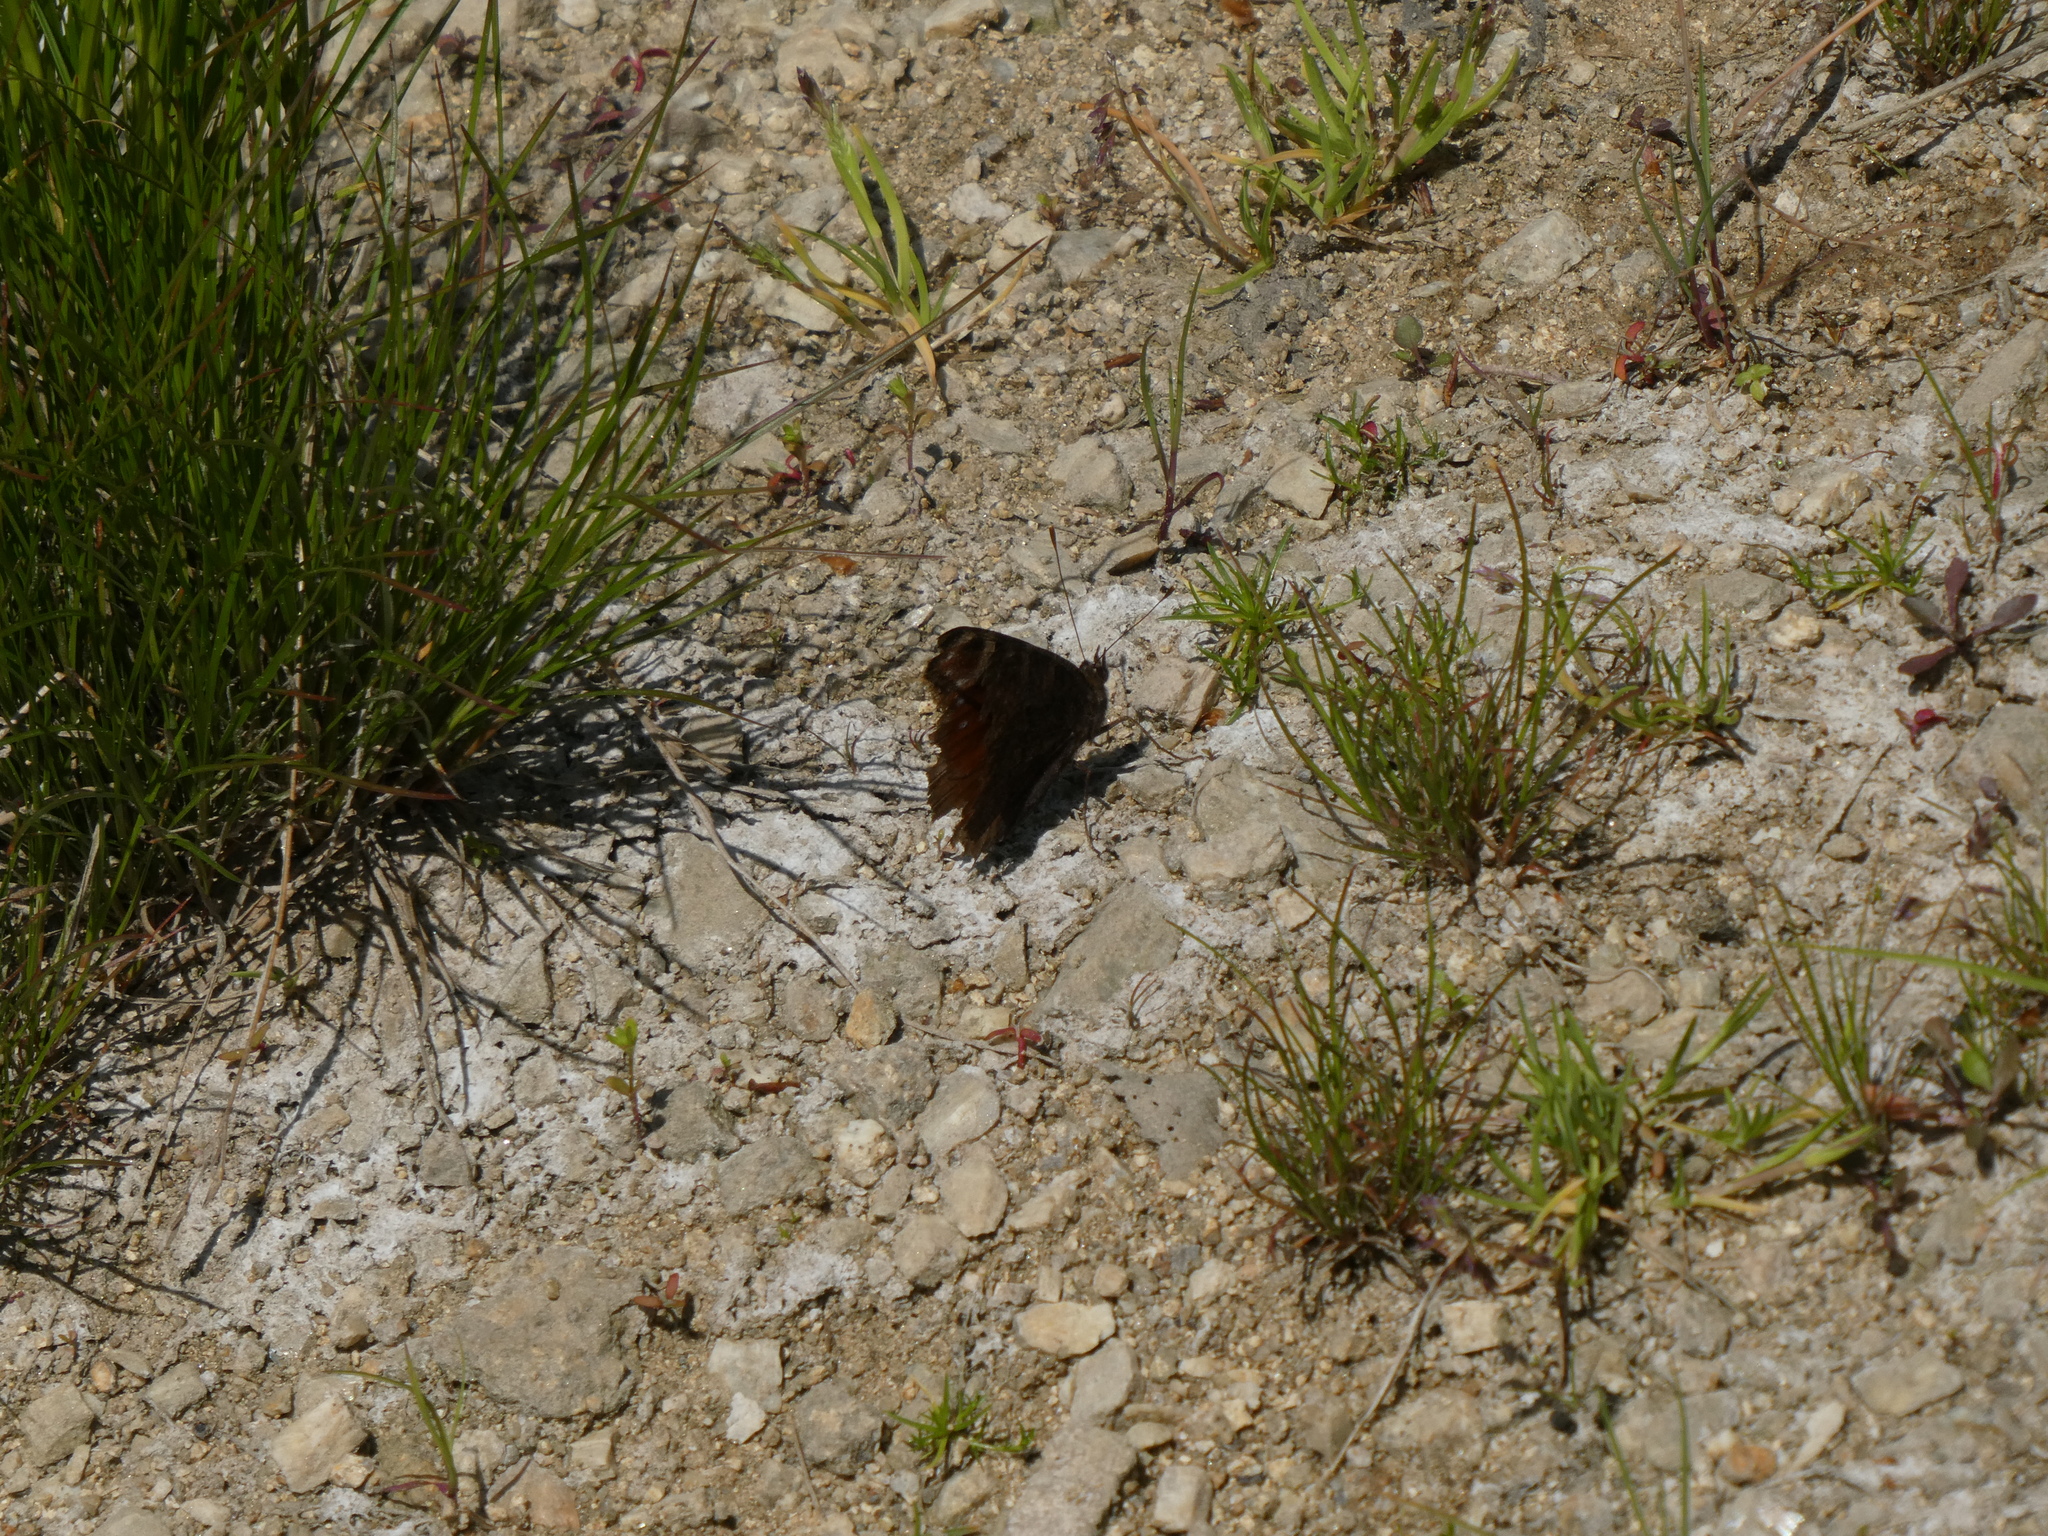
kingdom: Animalia
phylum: Arthropoda
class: Insecta
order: Lepidoptera
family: Nymphalidae
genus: Aglais
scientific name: Aglais io
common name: Peacock
